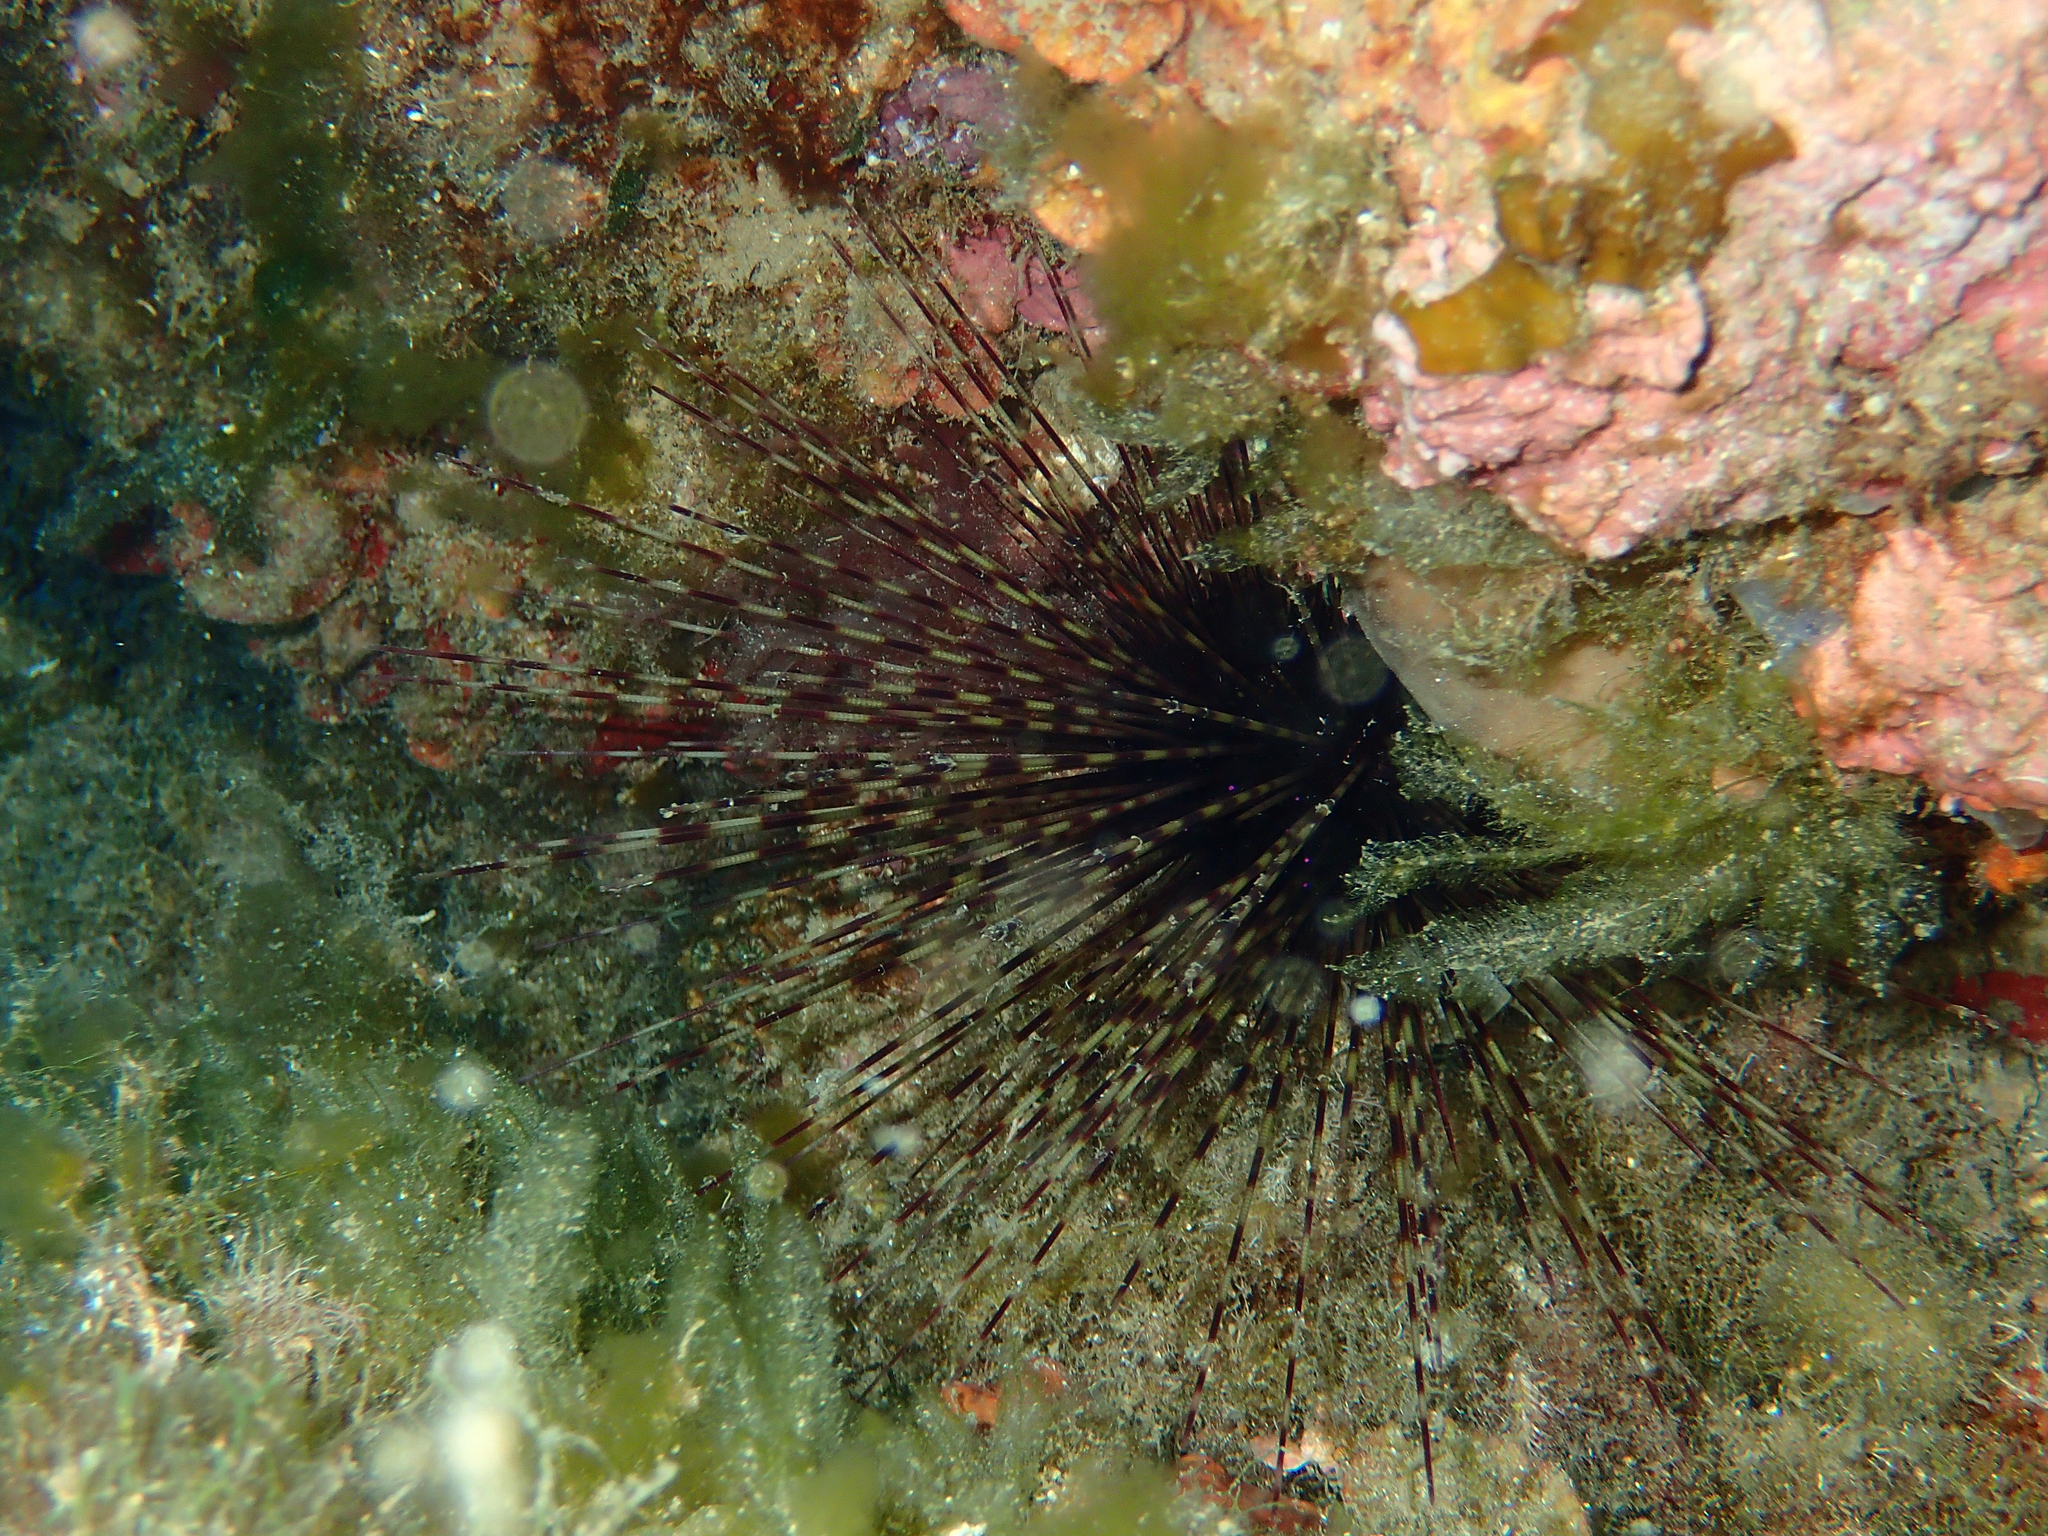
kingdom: Animalia
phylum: Echinodermata
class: Echinoidea
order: Diadematoida
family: Diadematidae
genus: Centrostephanus
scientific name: Centrostephanus longispinus
